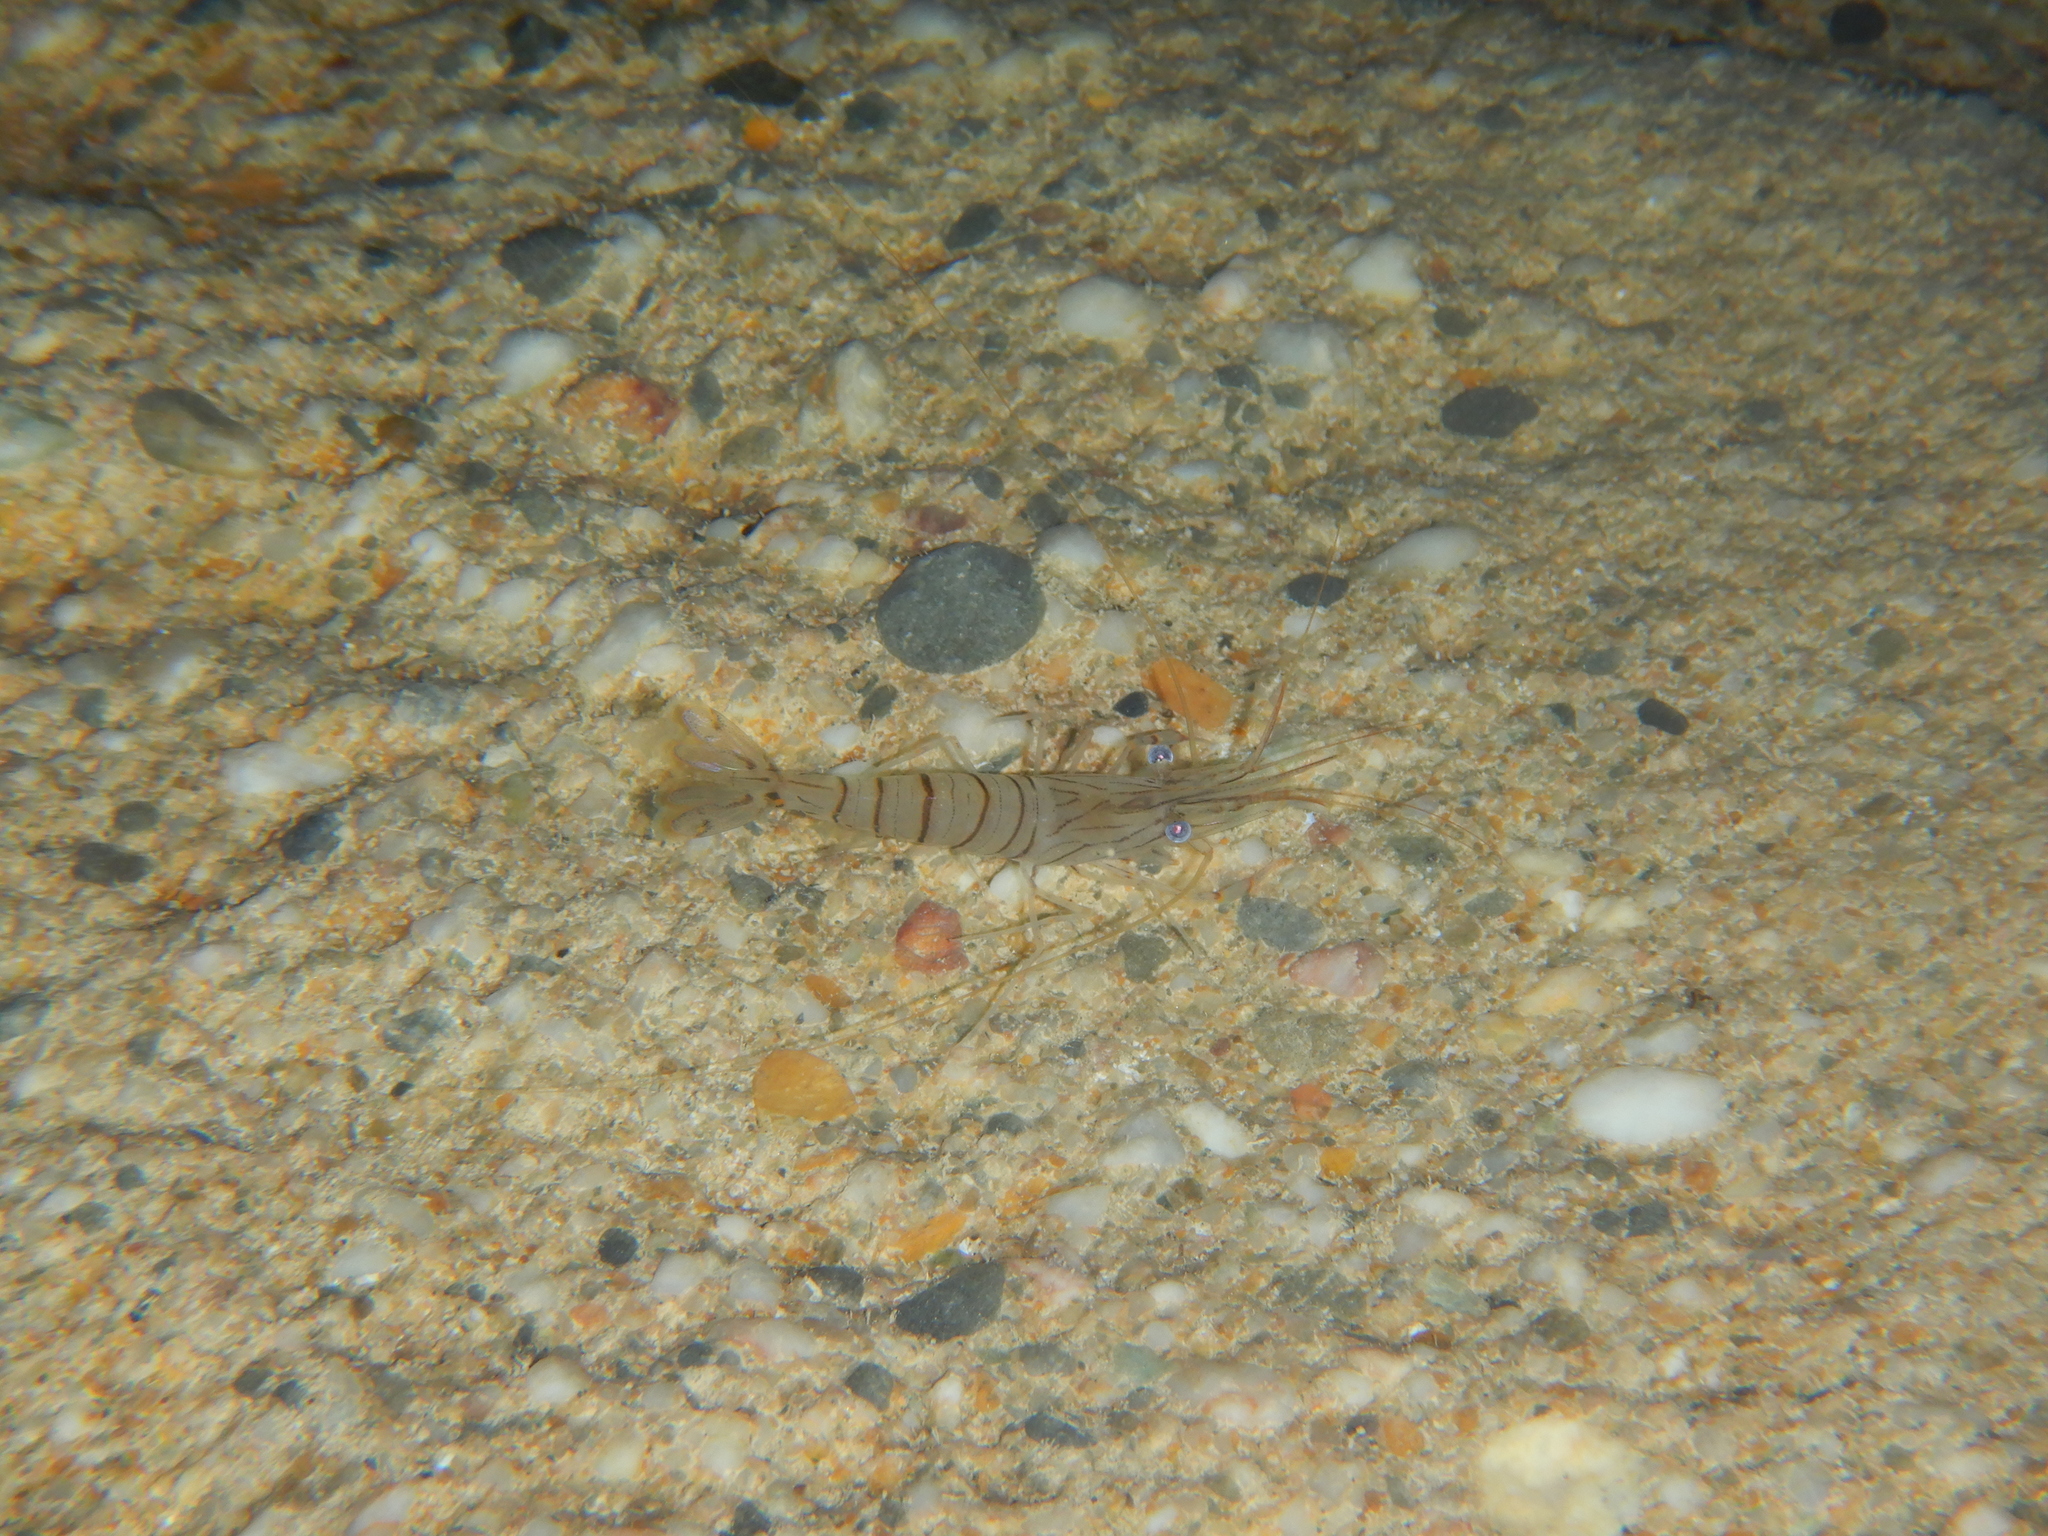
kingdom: Animalia
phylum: Arthropoda
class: Malacostraca
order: Decapoda
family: Palaemonidae
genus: Palaemon
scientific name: Palaemon serratus
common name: Common prawn
